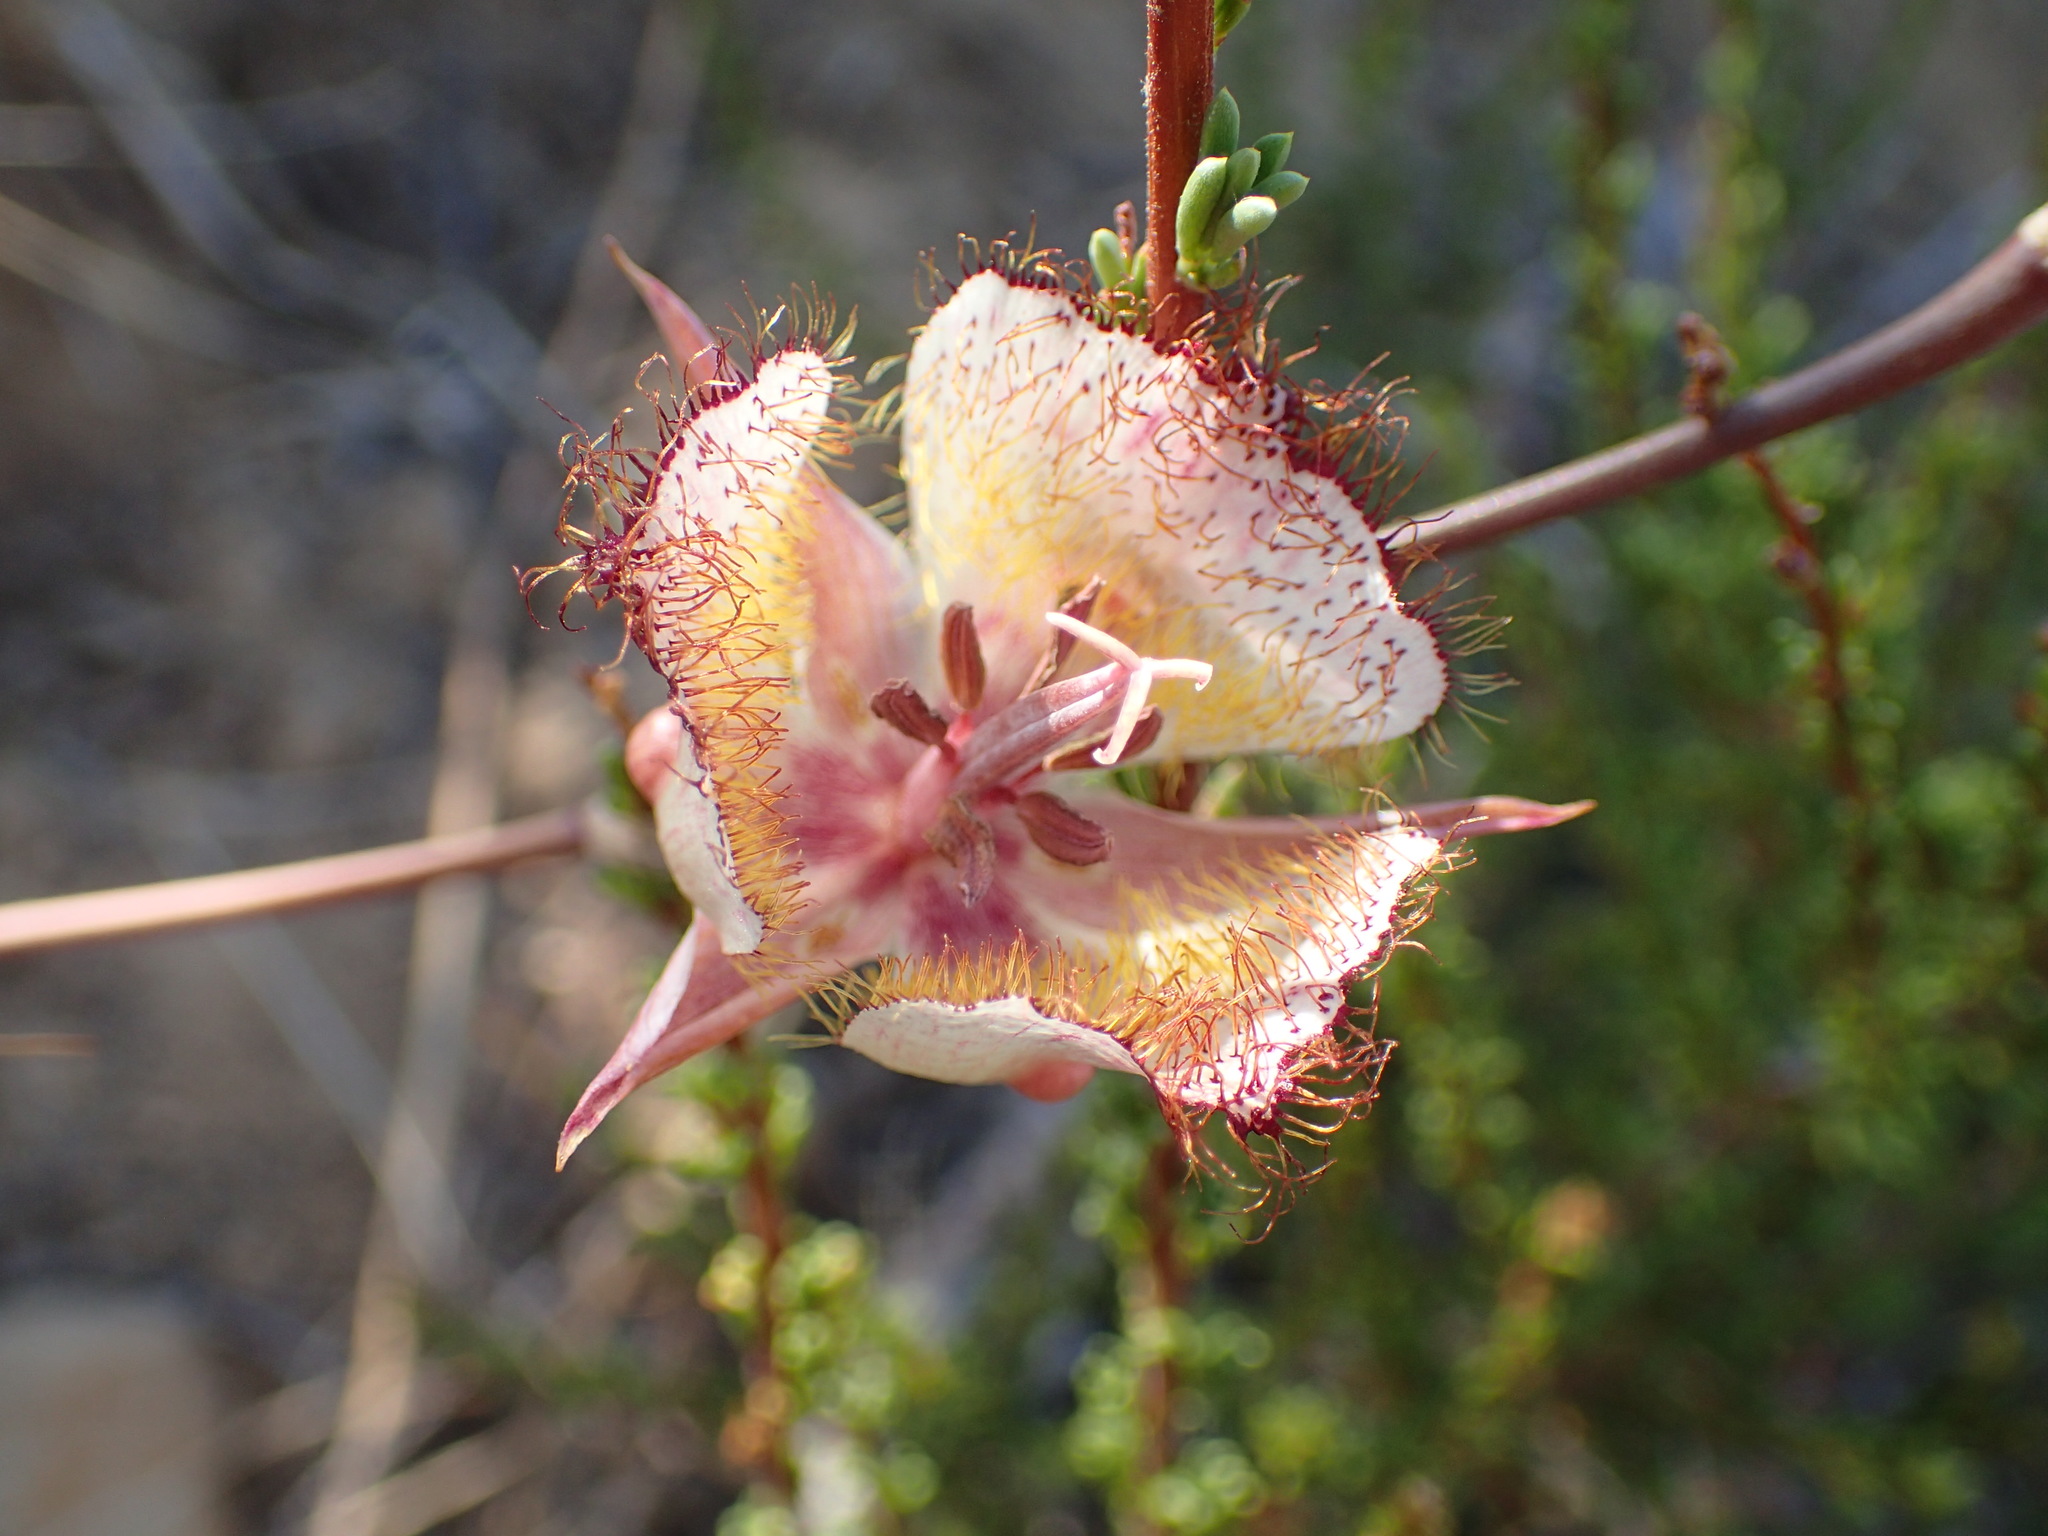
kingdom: Plantae
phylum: Tracheophyta
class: Liliopsida
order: Liliales
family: Liliaceae
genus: Calochortus
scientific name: Calochortus fimbriatus
